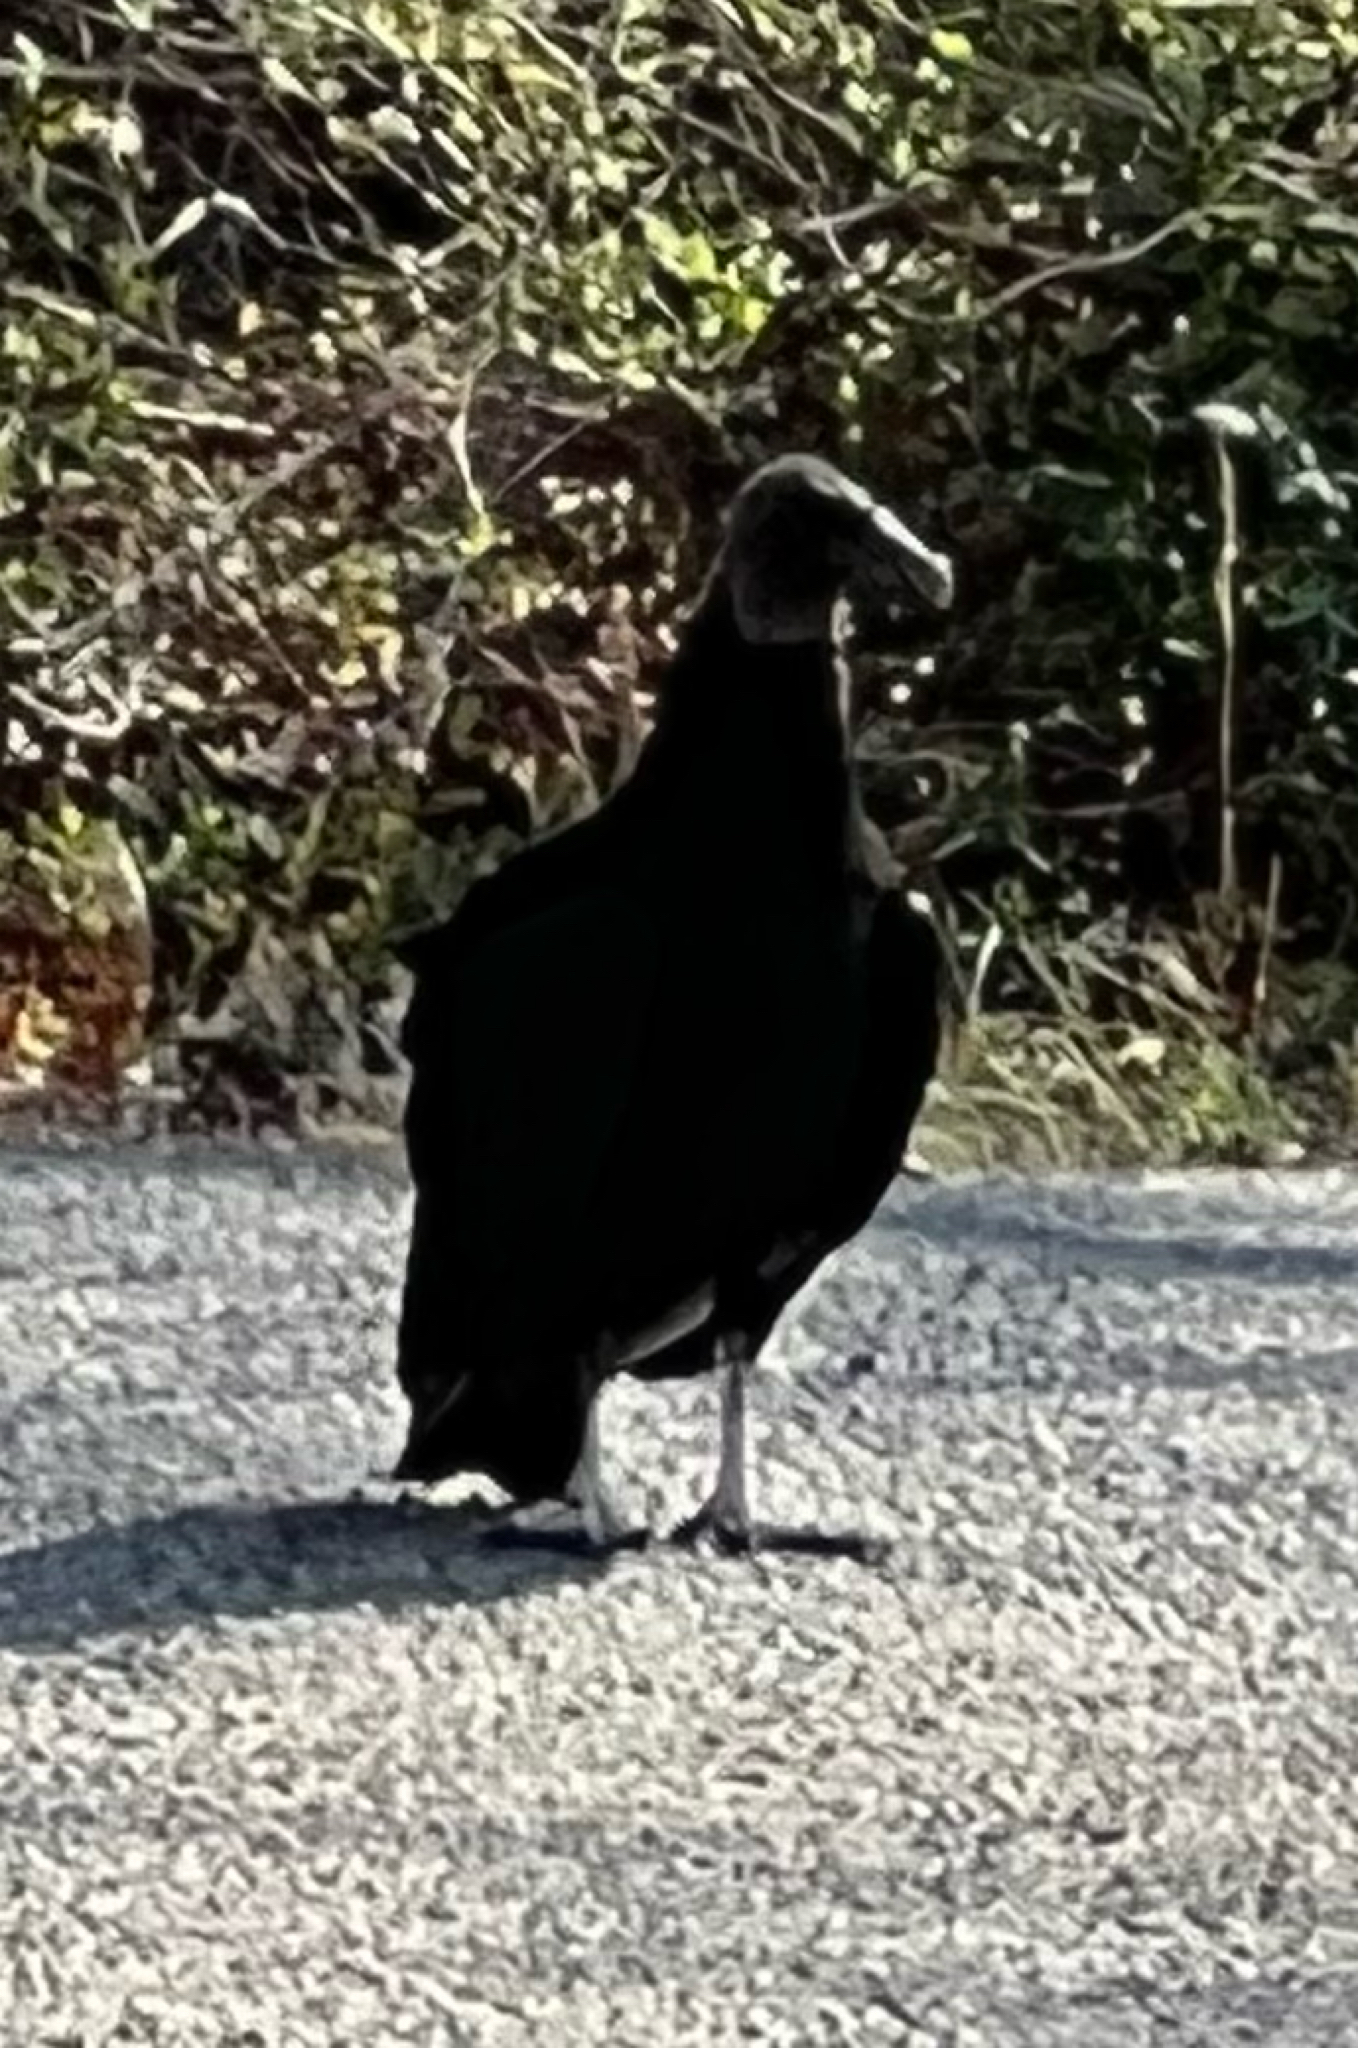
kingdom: Animalia
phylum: Chordata
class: Aves
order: Accipitriformes
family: Cathartidae
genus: Coragyps
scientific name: Coragyps atratus
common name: Black vulture
